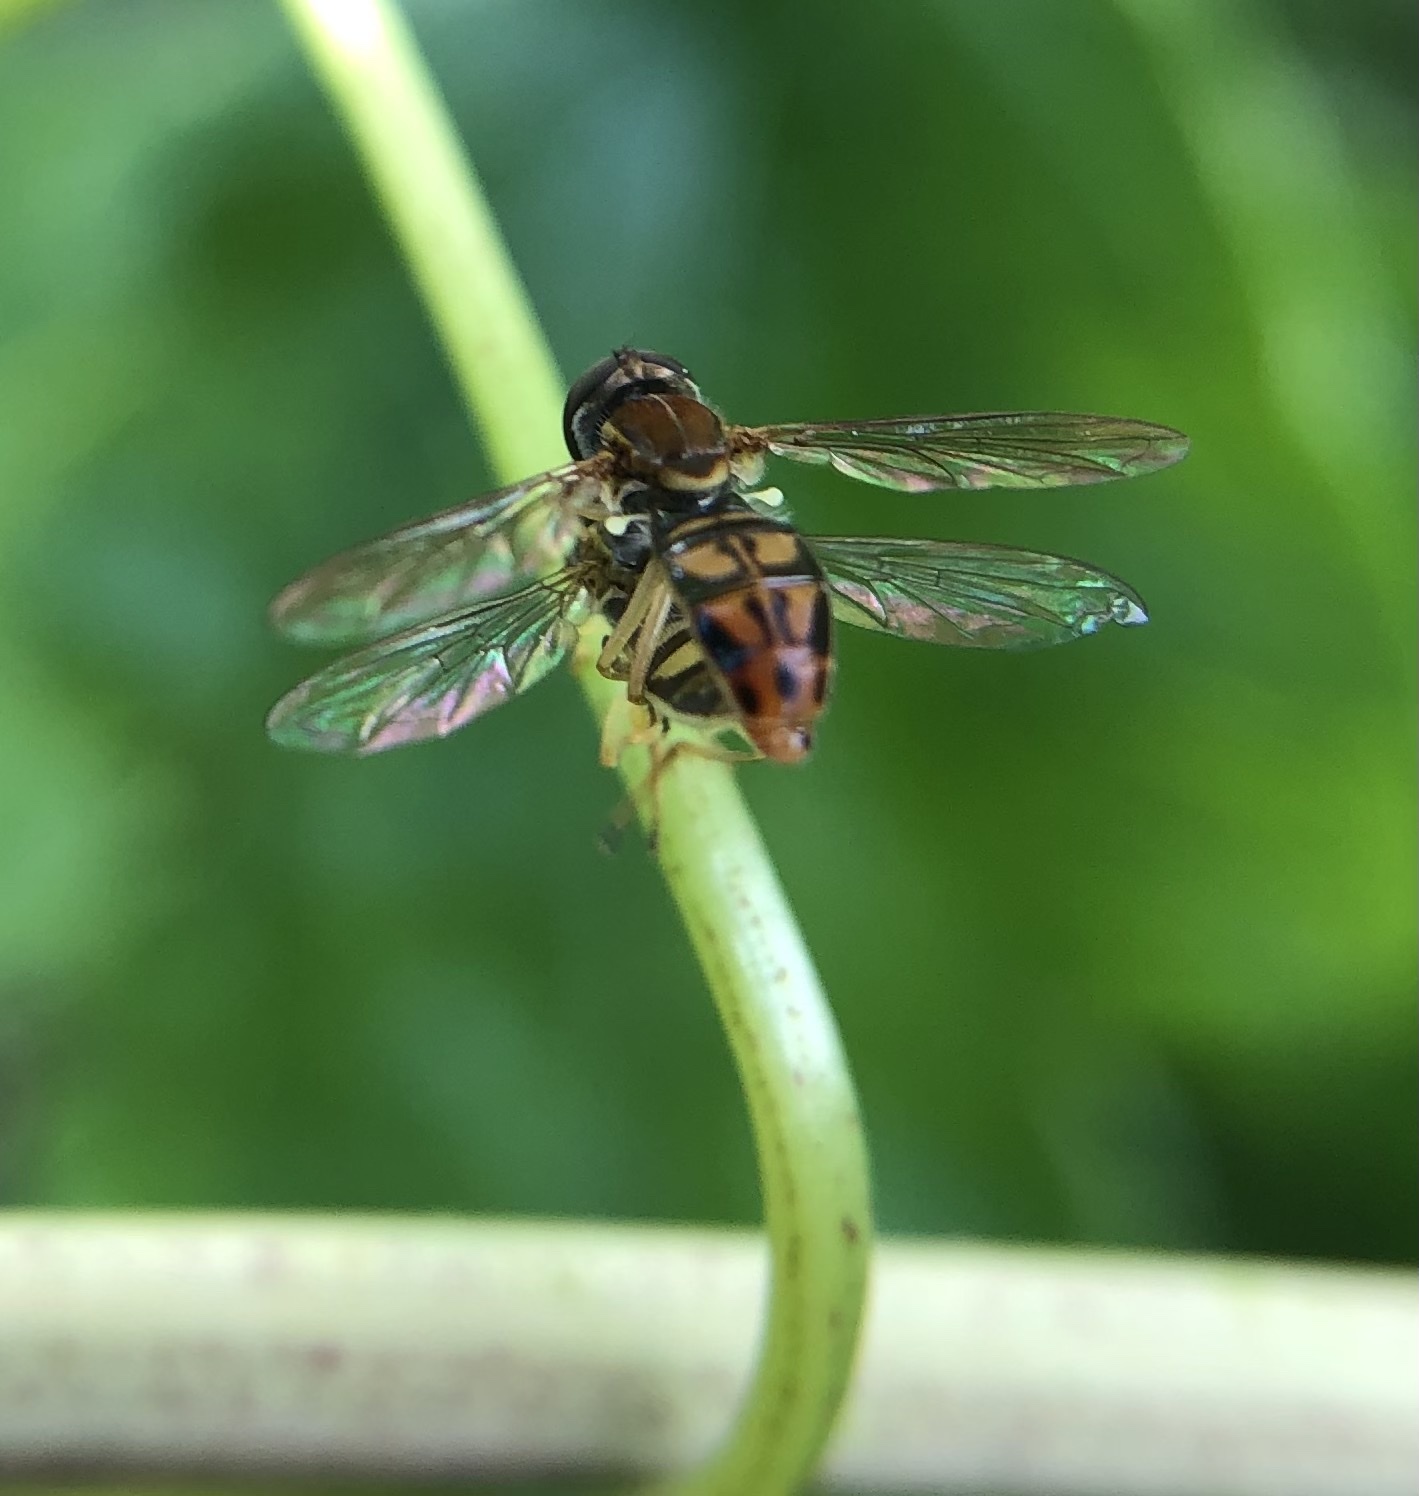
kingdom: Animalia
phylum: Arthropoda
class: Insecta
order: Diptera
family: Syrphidae
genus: Toxomerus
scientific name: Toxomerus marginatus
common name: Syrphid fly
